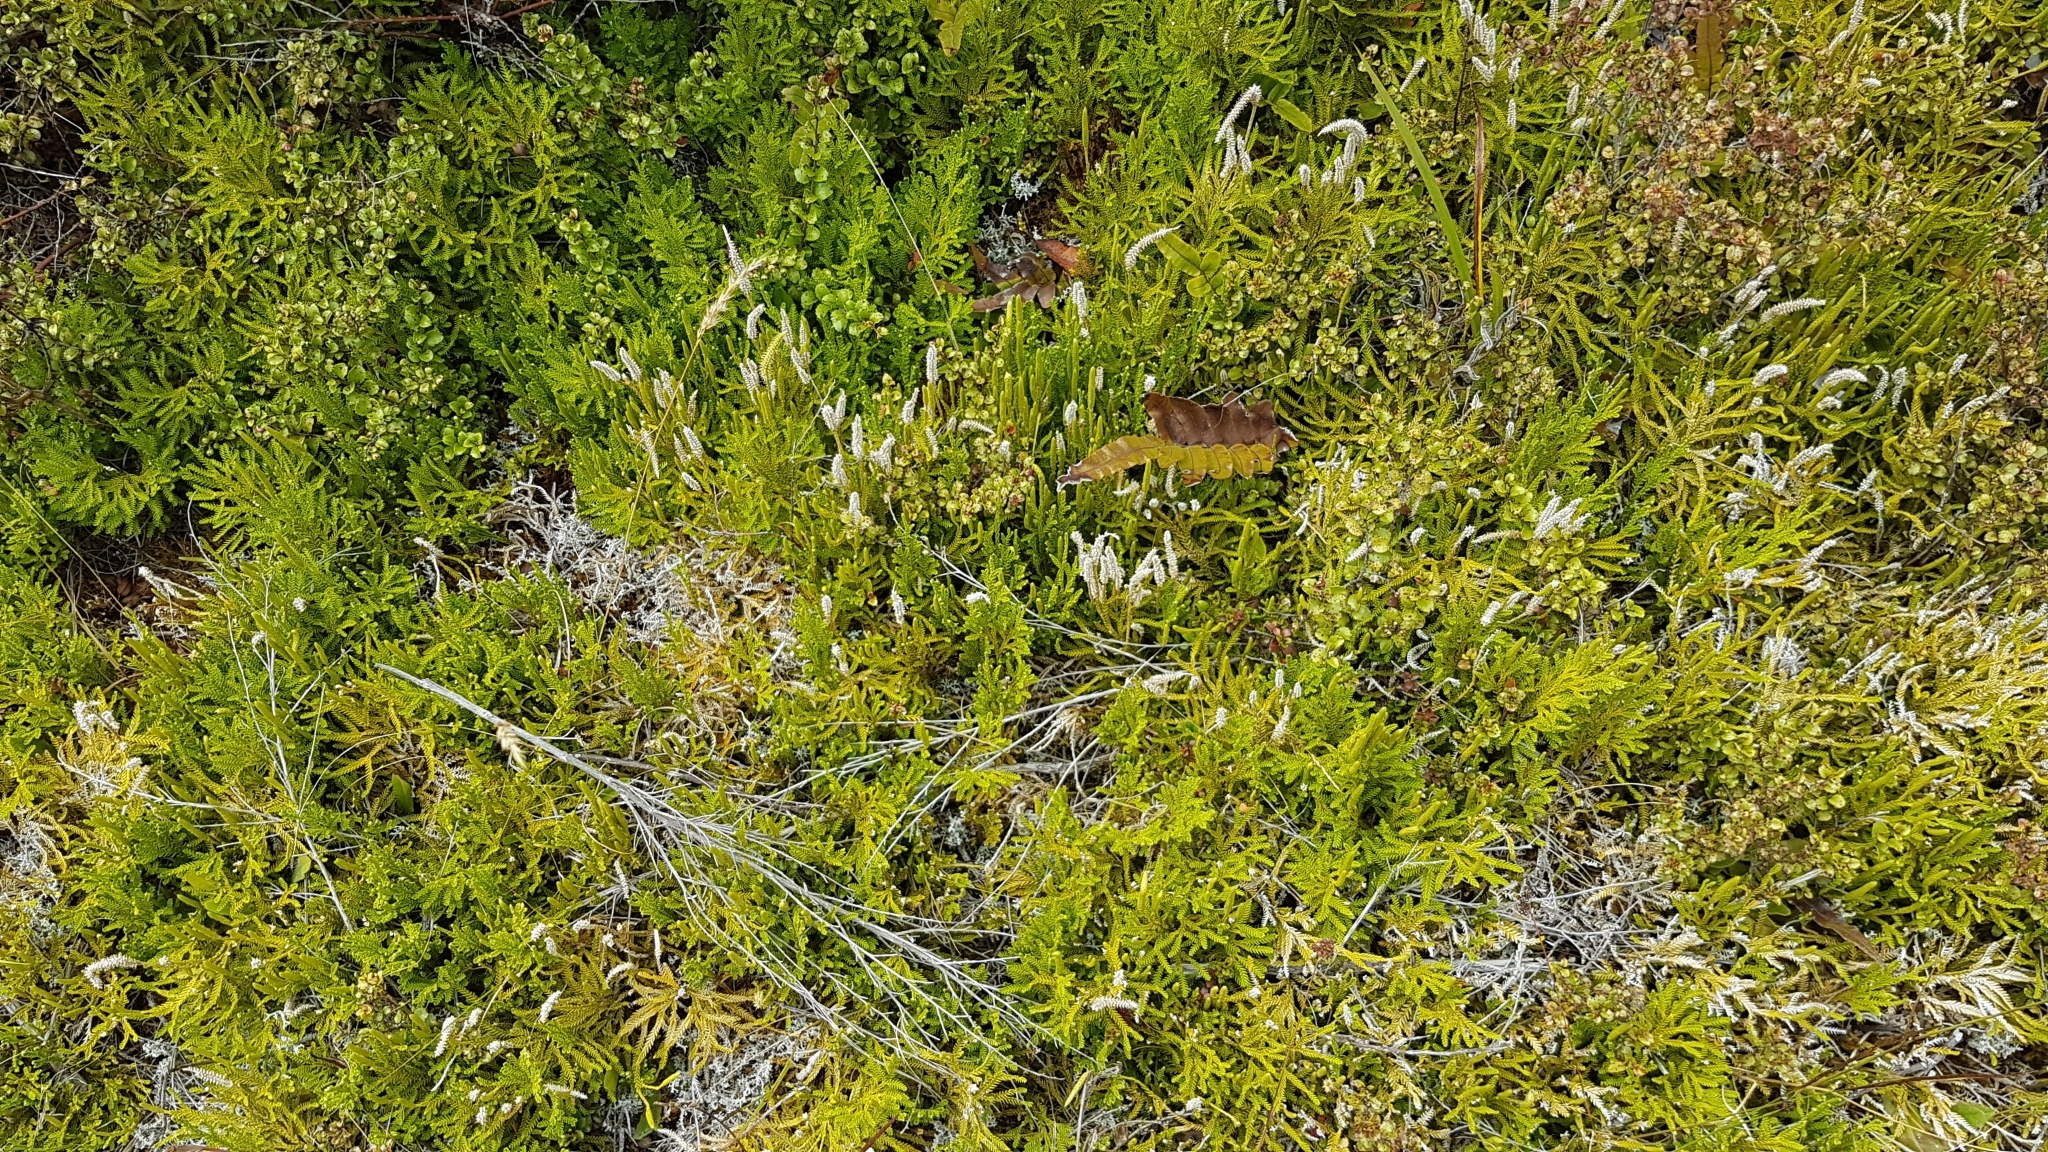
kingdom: Plantae
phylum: Tracheophyta
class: Lycopodiopsida
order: Lycopodiales
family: Lycopodiaceae
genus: Diphasium
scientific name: Diphasium scariosum
